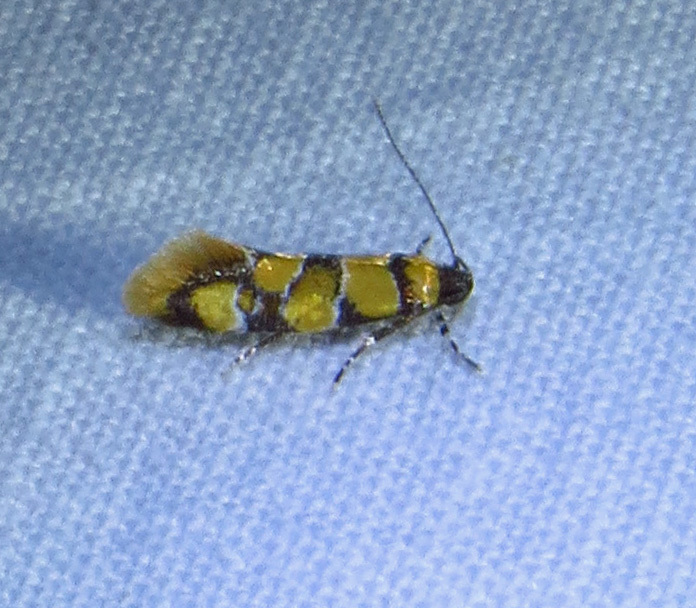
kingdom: Animalia
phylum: Arthropoda
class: Insecta
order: Lepidoptera
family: Oecophoridae
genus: Decantha
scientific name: Decantha borkhausenii
